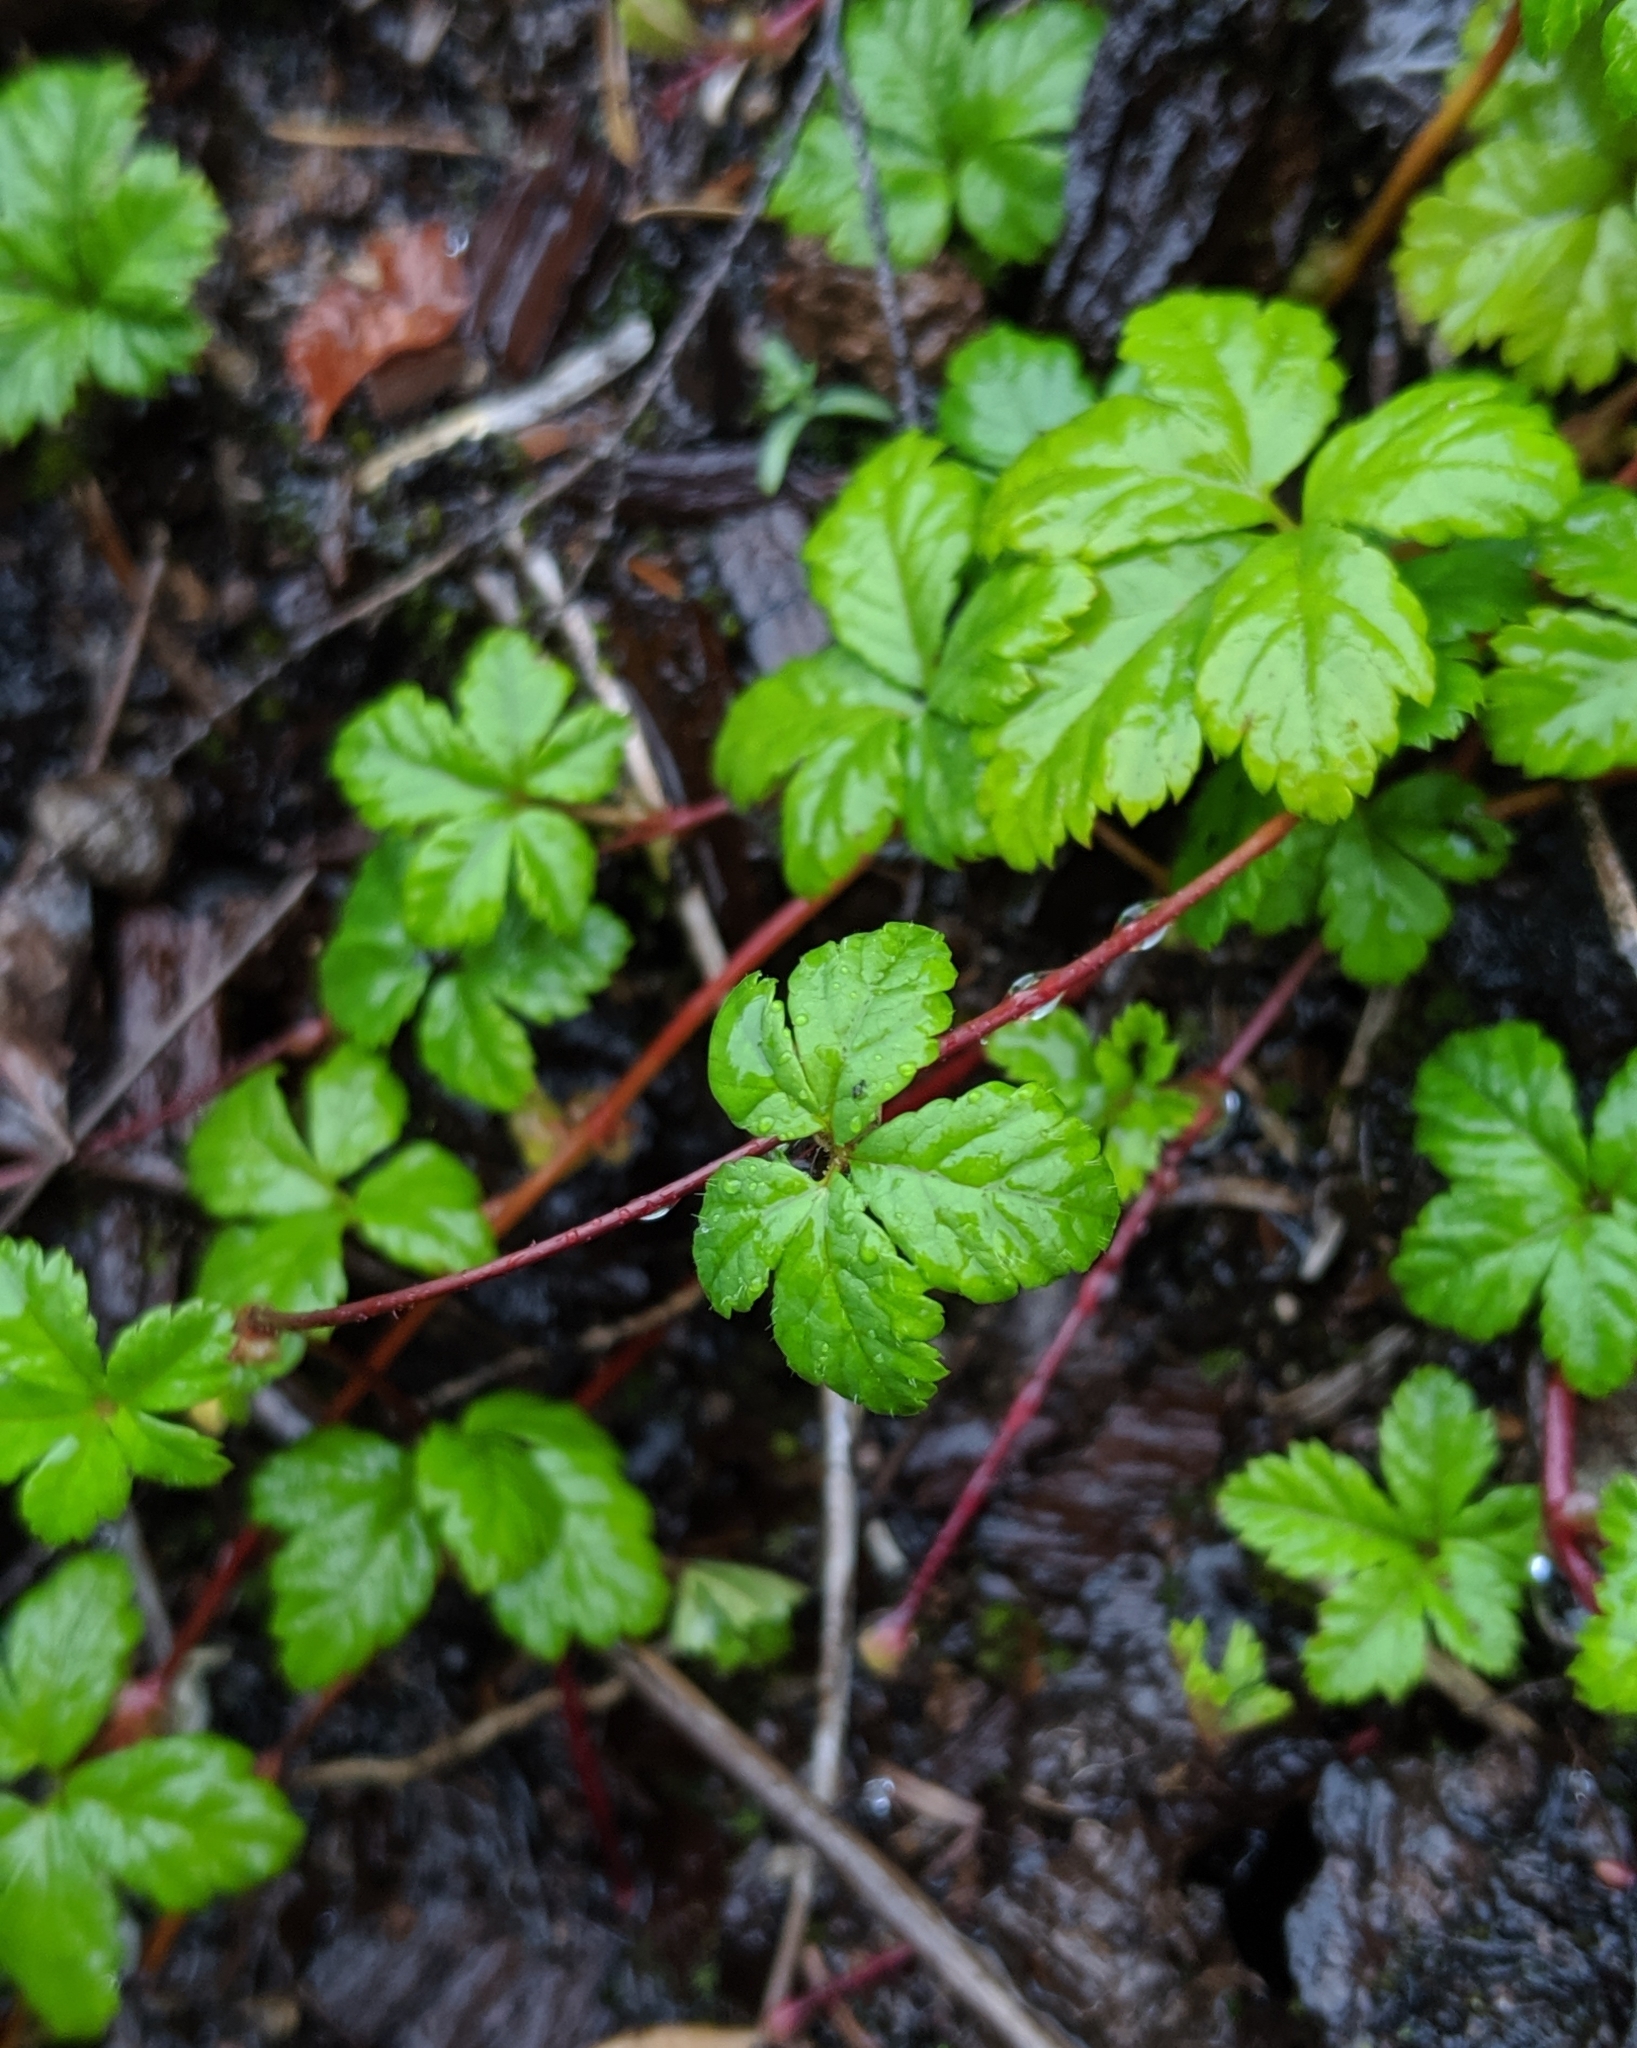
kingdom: Plantae
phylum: Tracheophyta
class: Magnoliopsida
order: Rosales
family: Rosaceae
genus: Rubus
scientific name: Rubus pedatus
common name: Creeping raspberry
